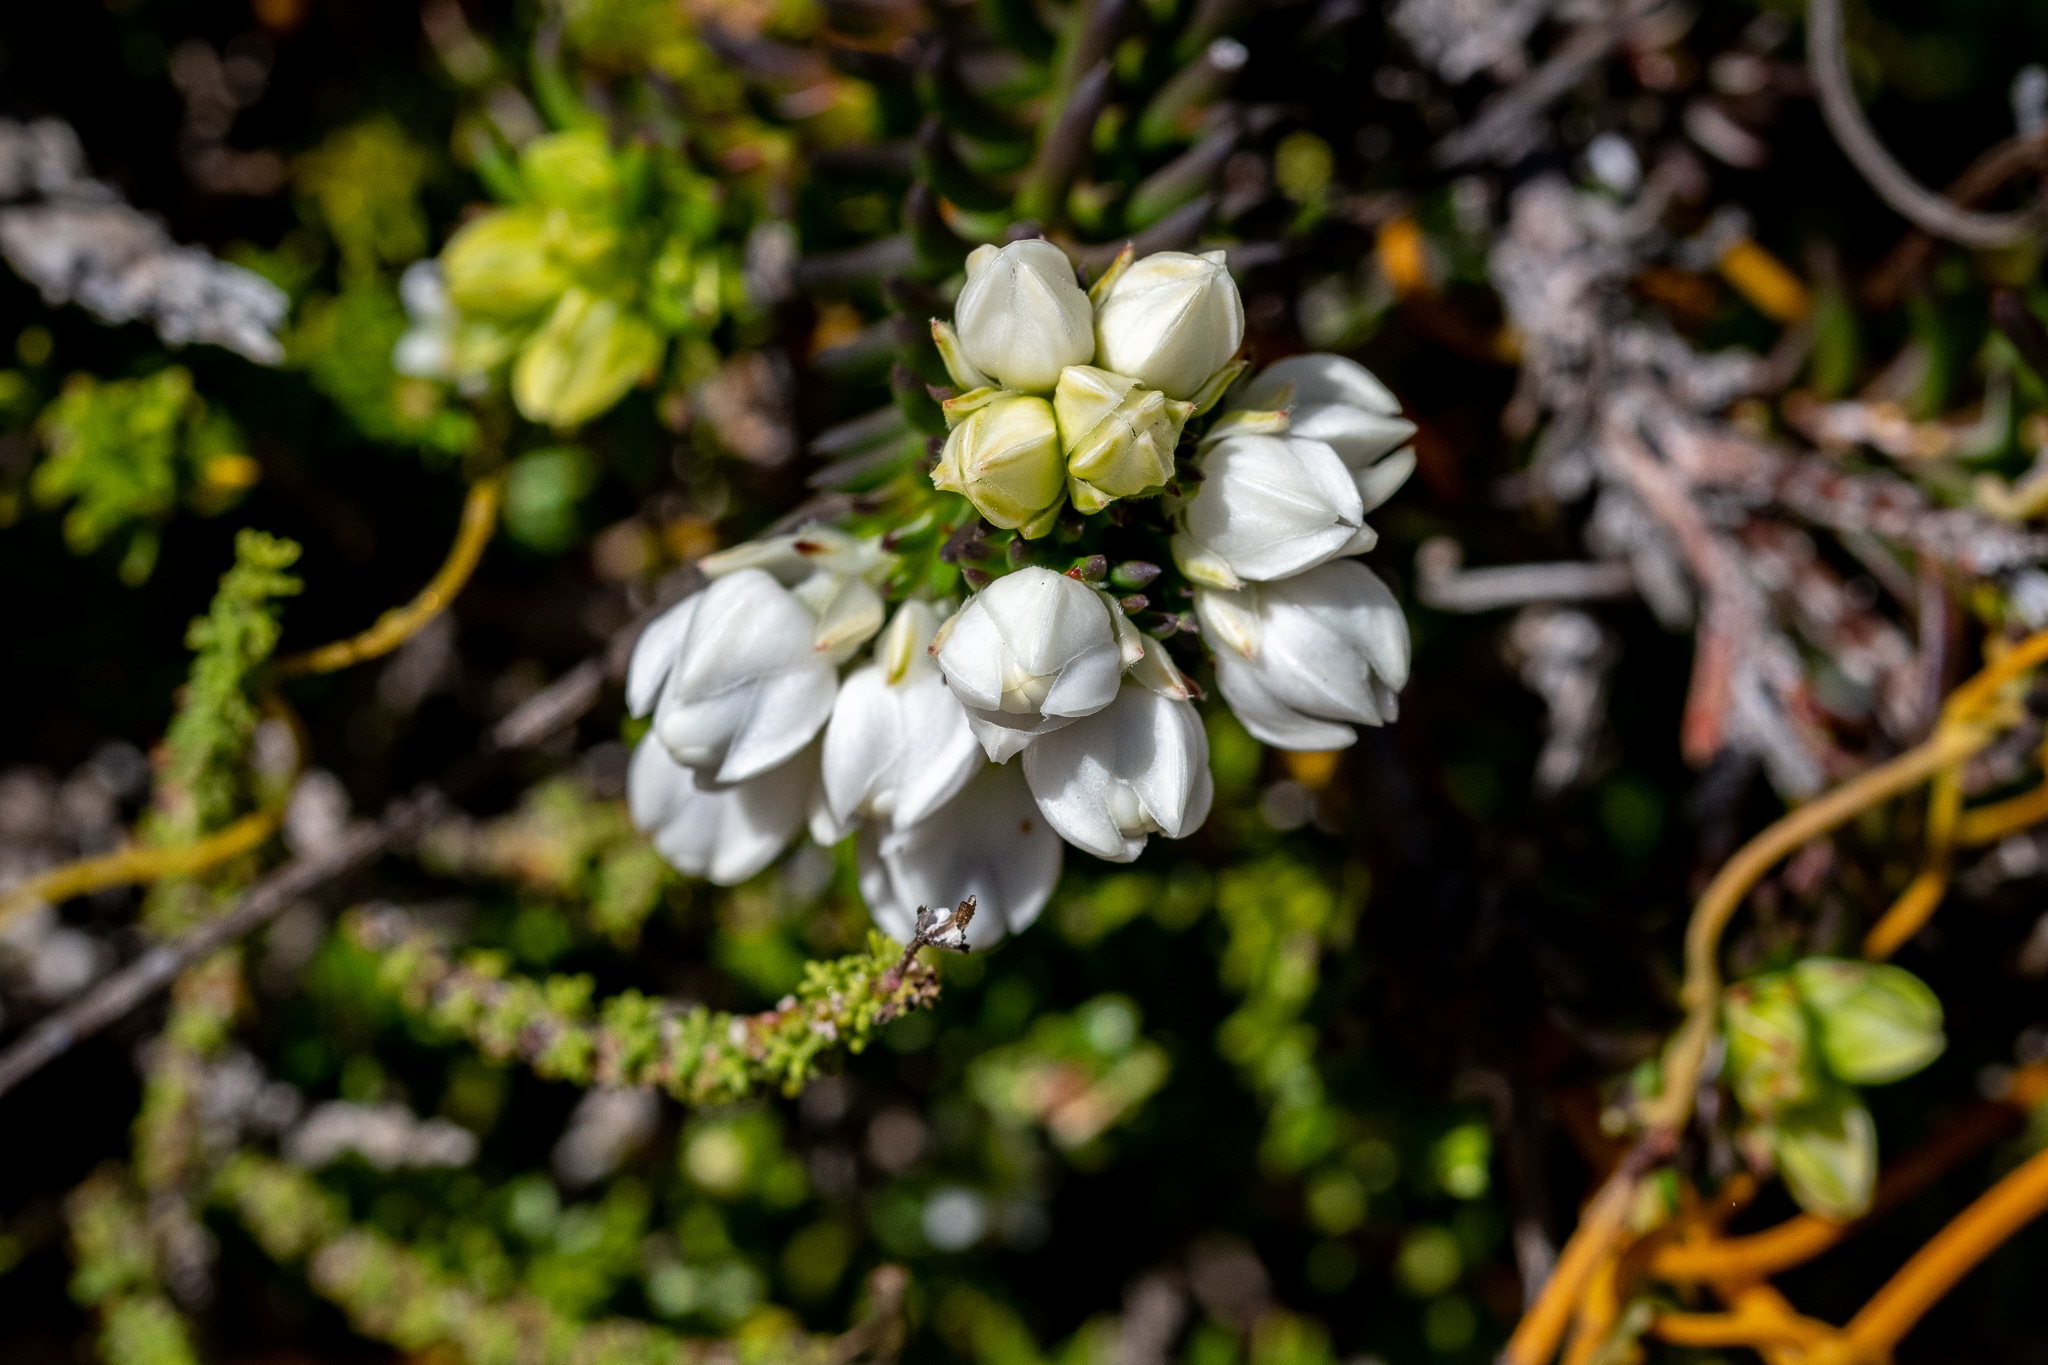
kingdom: Plantae
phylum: Tracheophyta
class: Magnoliopsida
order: Ericales
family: Ericaceae
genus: Erica
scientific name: Erica calcareophila
